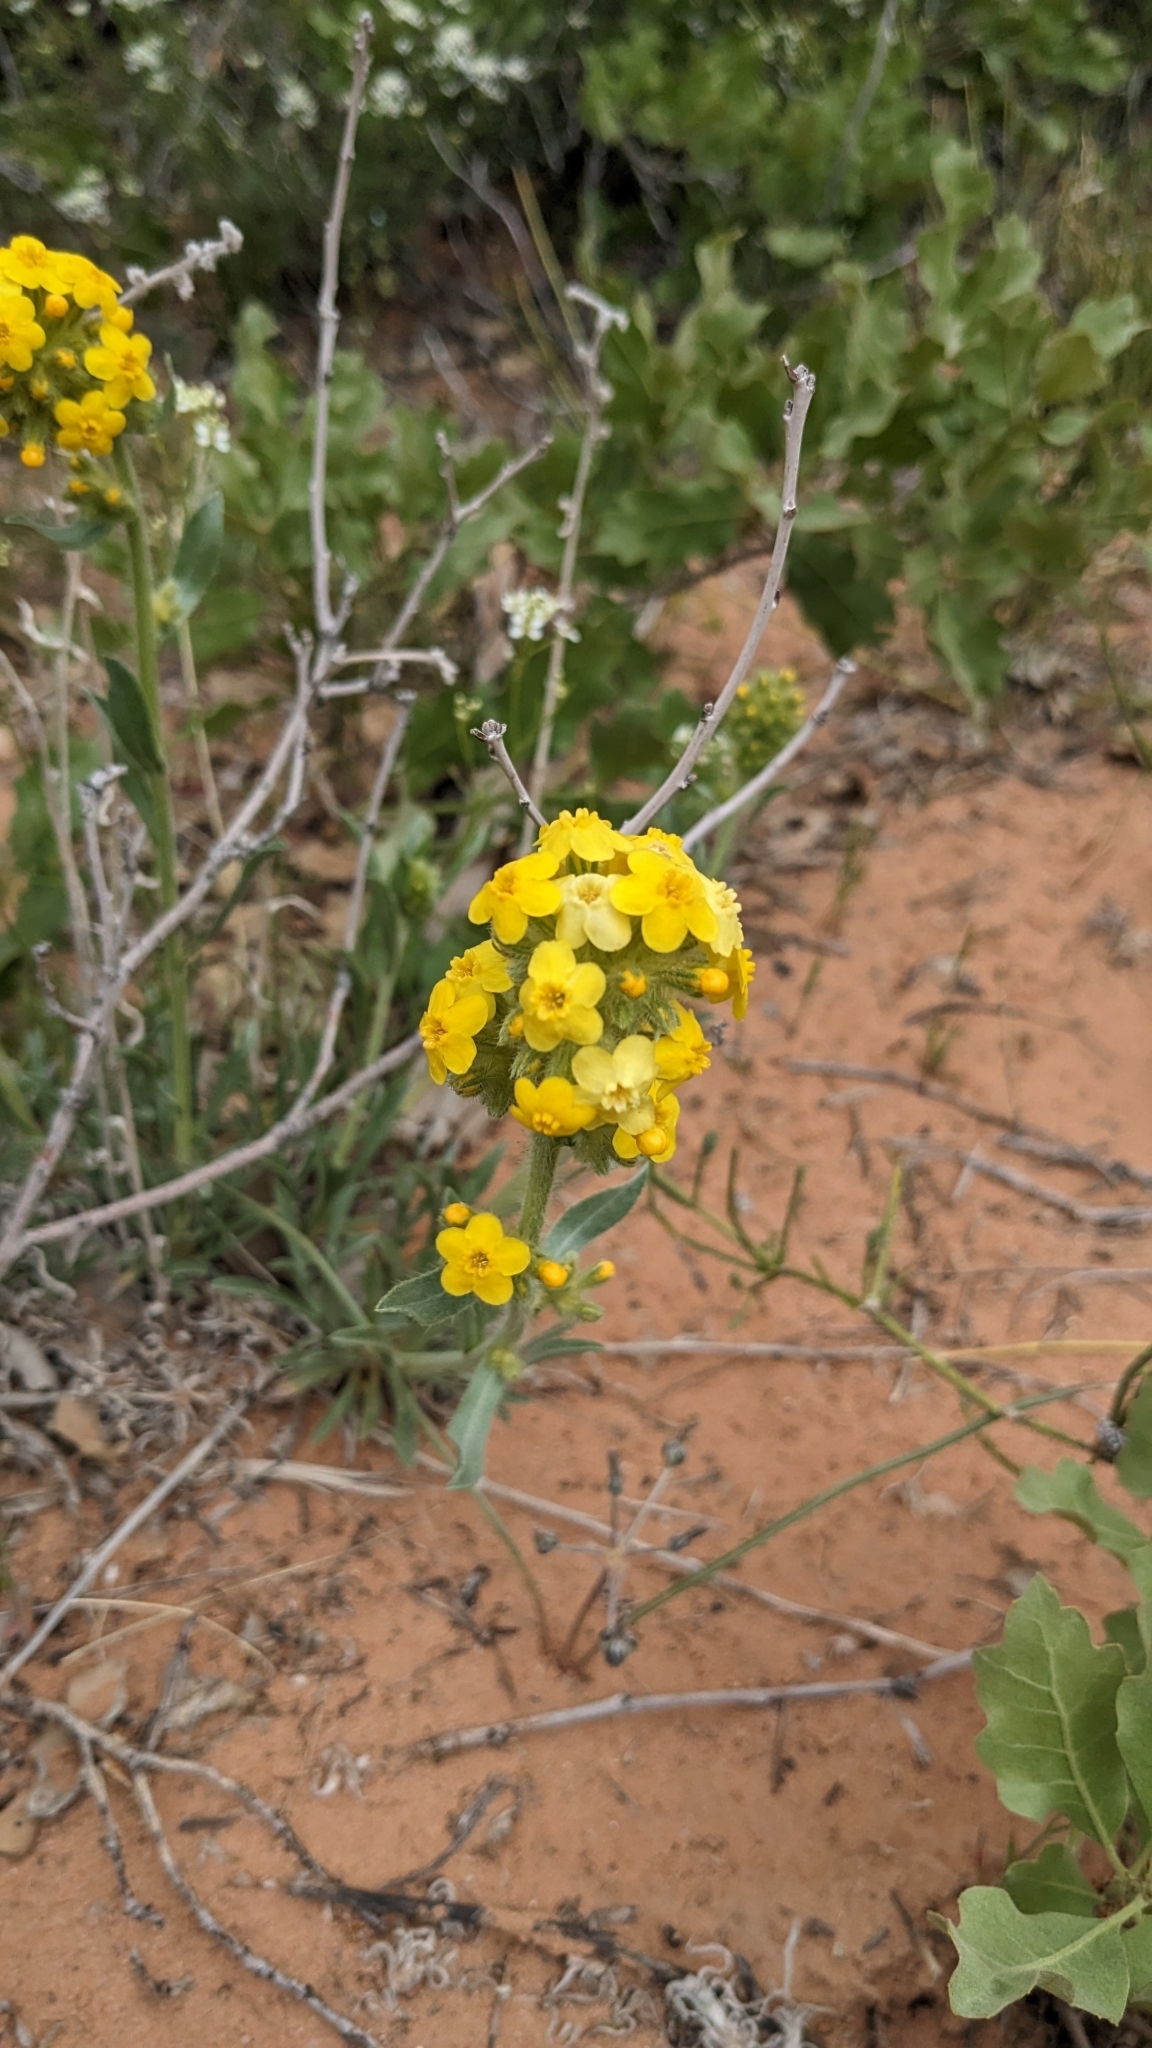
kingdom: Plantae
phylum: Tracheophyta
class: Magnoliopsida
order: Boraginales
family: Boraginaceae
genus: Oreocarya
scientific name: Oreocarya flava
